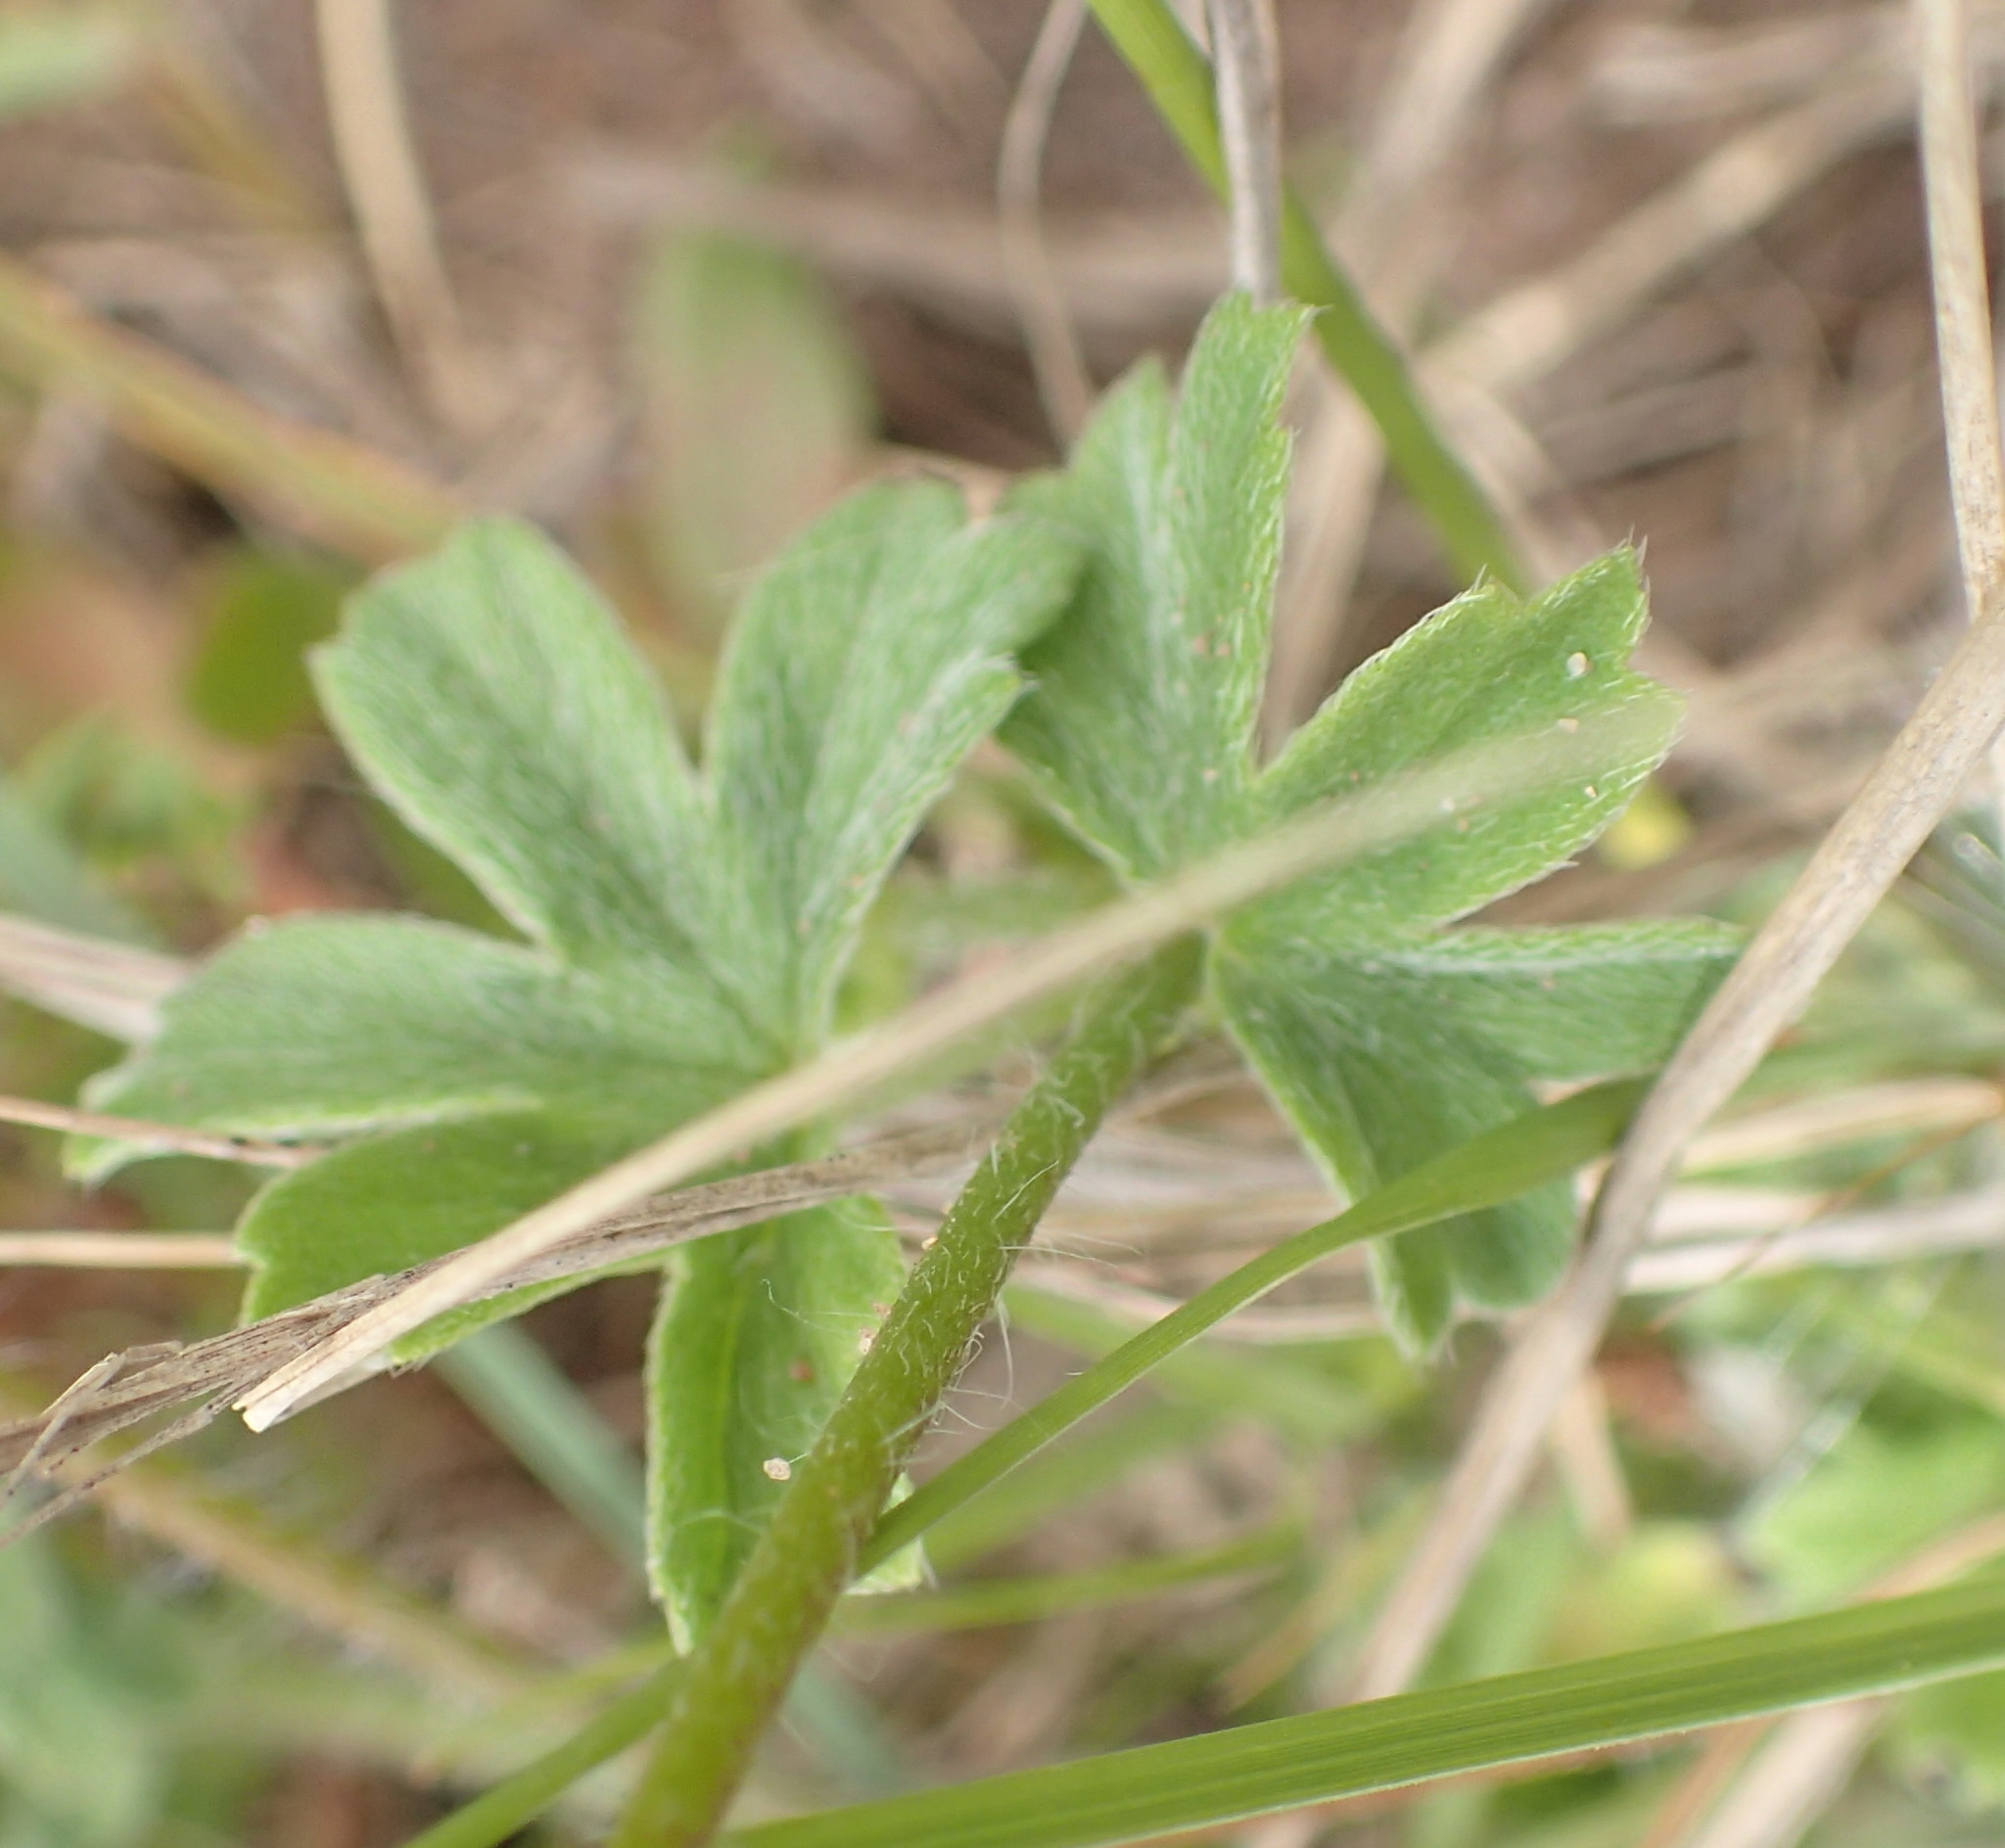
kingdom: Plantae
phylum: Tracheophyta
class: Magnoliopsida
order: Geraniales
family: Geraniaceae
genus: Pelargonium
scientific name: Pelargonium alchemilloides
